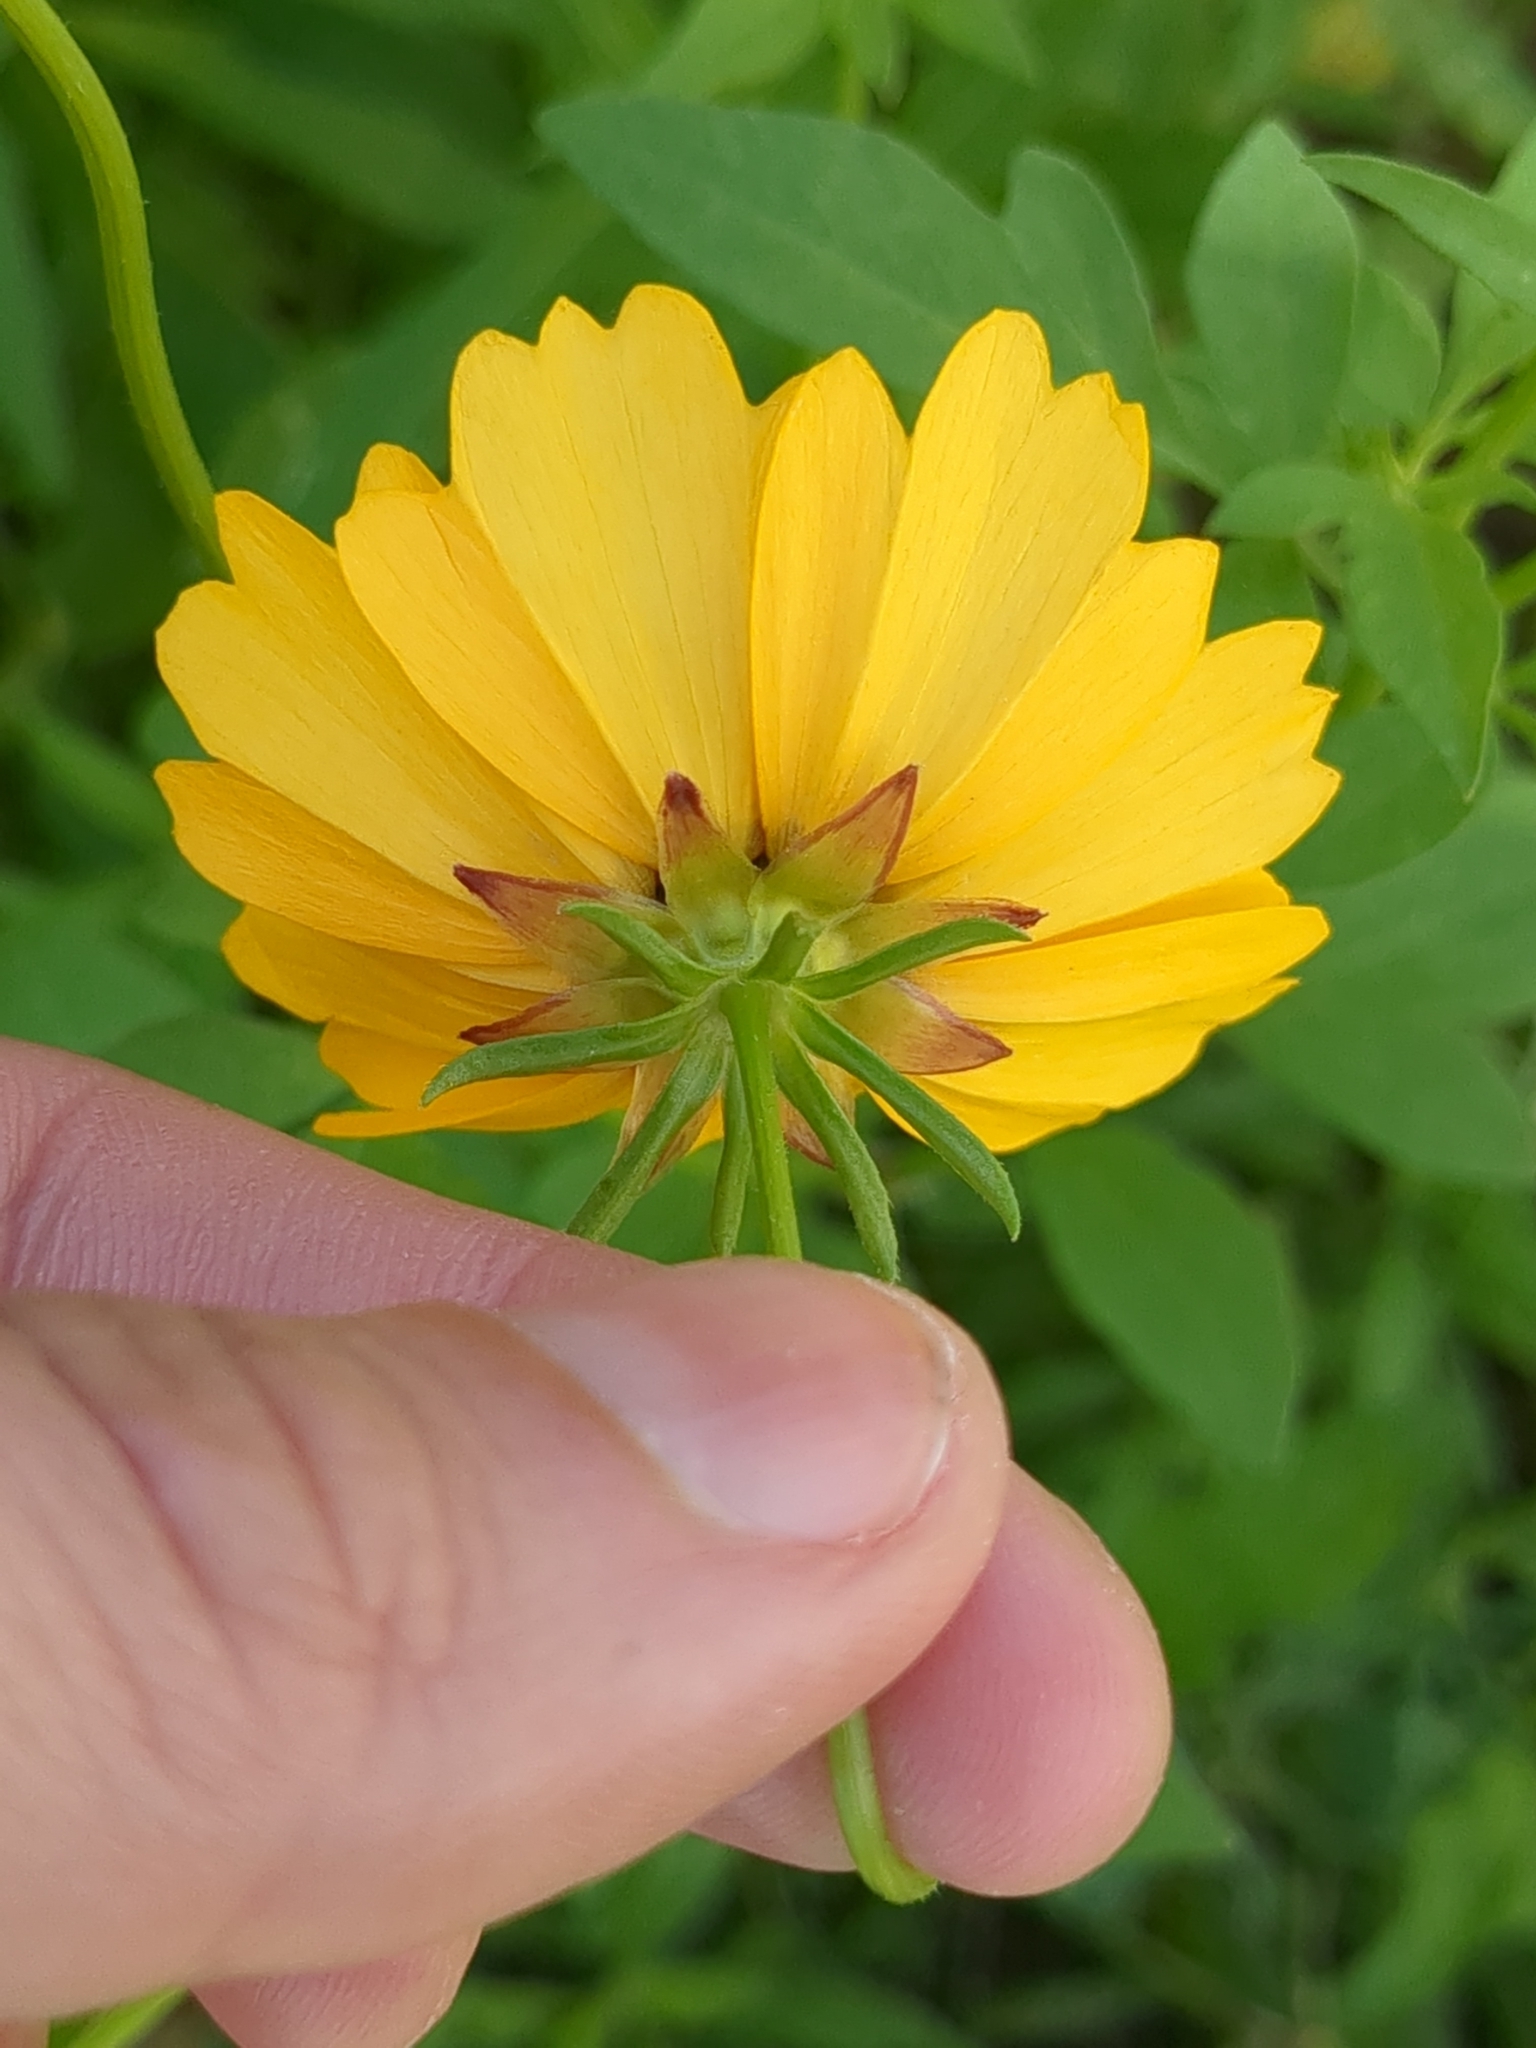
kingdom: Plantae
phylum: Tracheophyta
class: Magnoliopsida
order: Asterales
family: Asteraceae
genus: Coreopsis
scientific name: Coreopsis basalis
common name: Golden-mane coreopsis
